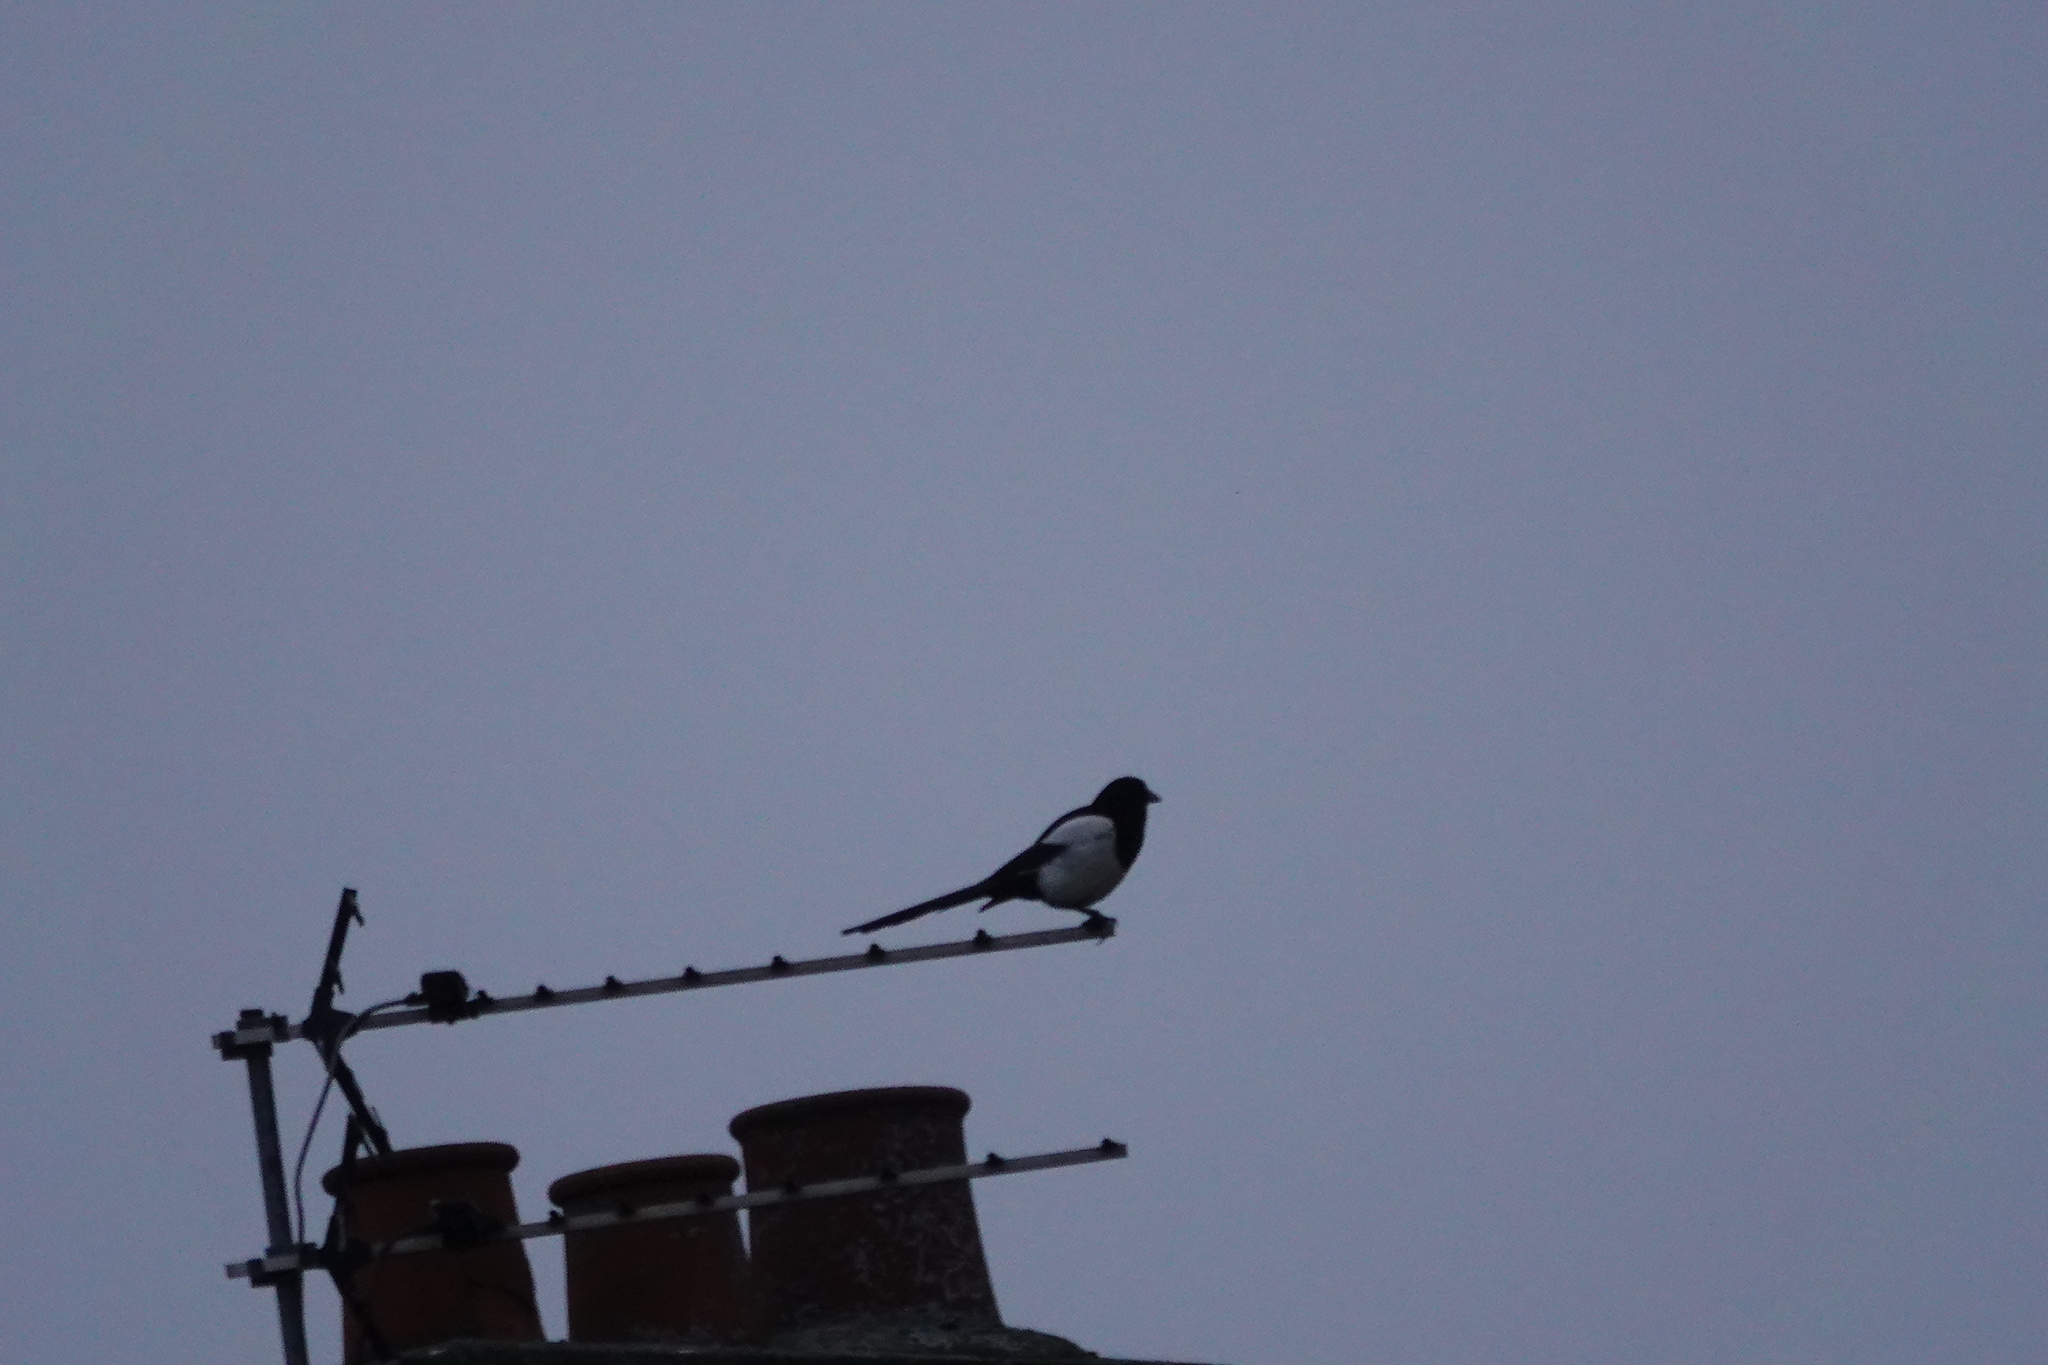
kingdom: Animalia
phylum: Chordata
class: Aves
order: Passeriformes
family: Corvidae
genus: Pica
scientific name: Pica pica
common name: Eurasian magpie
